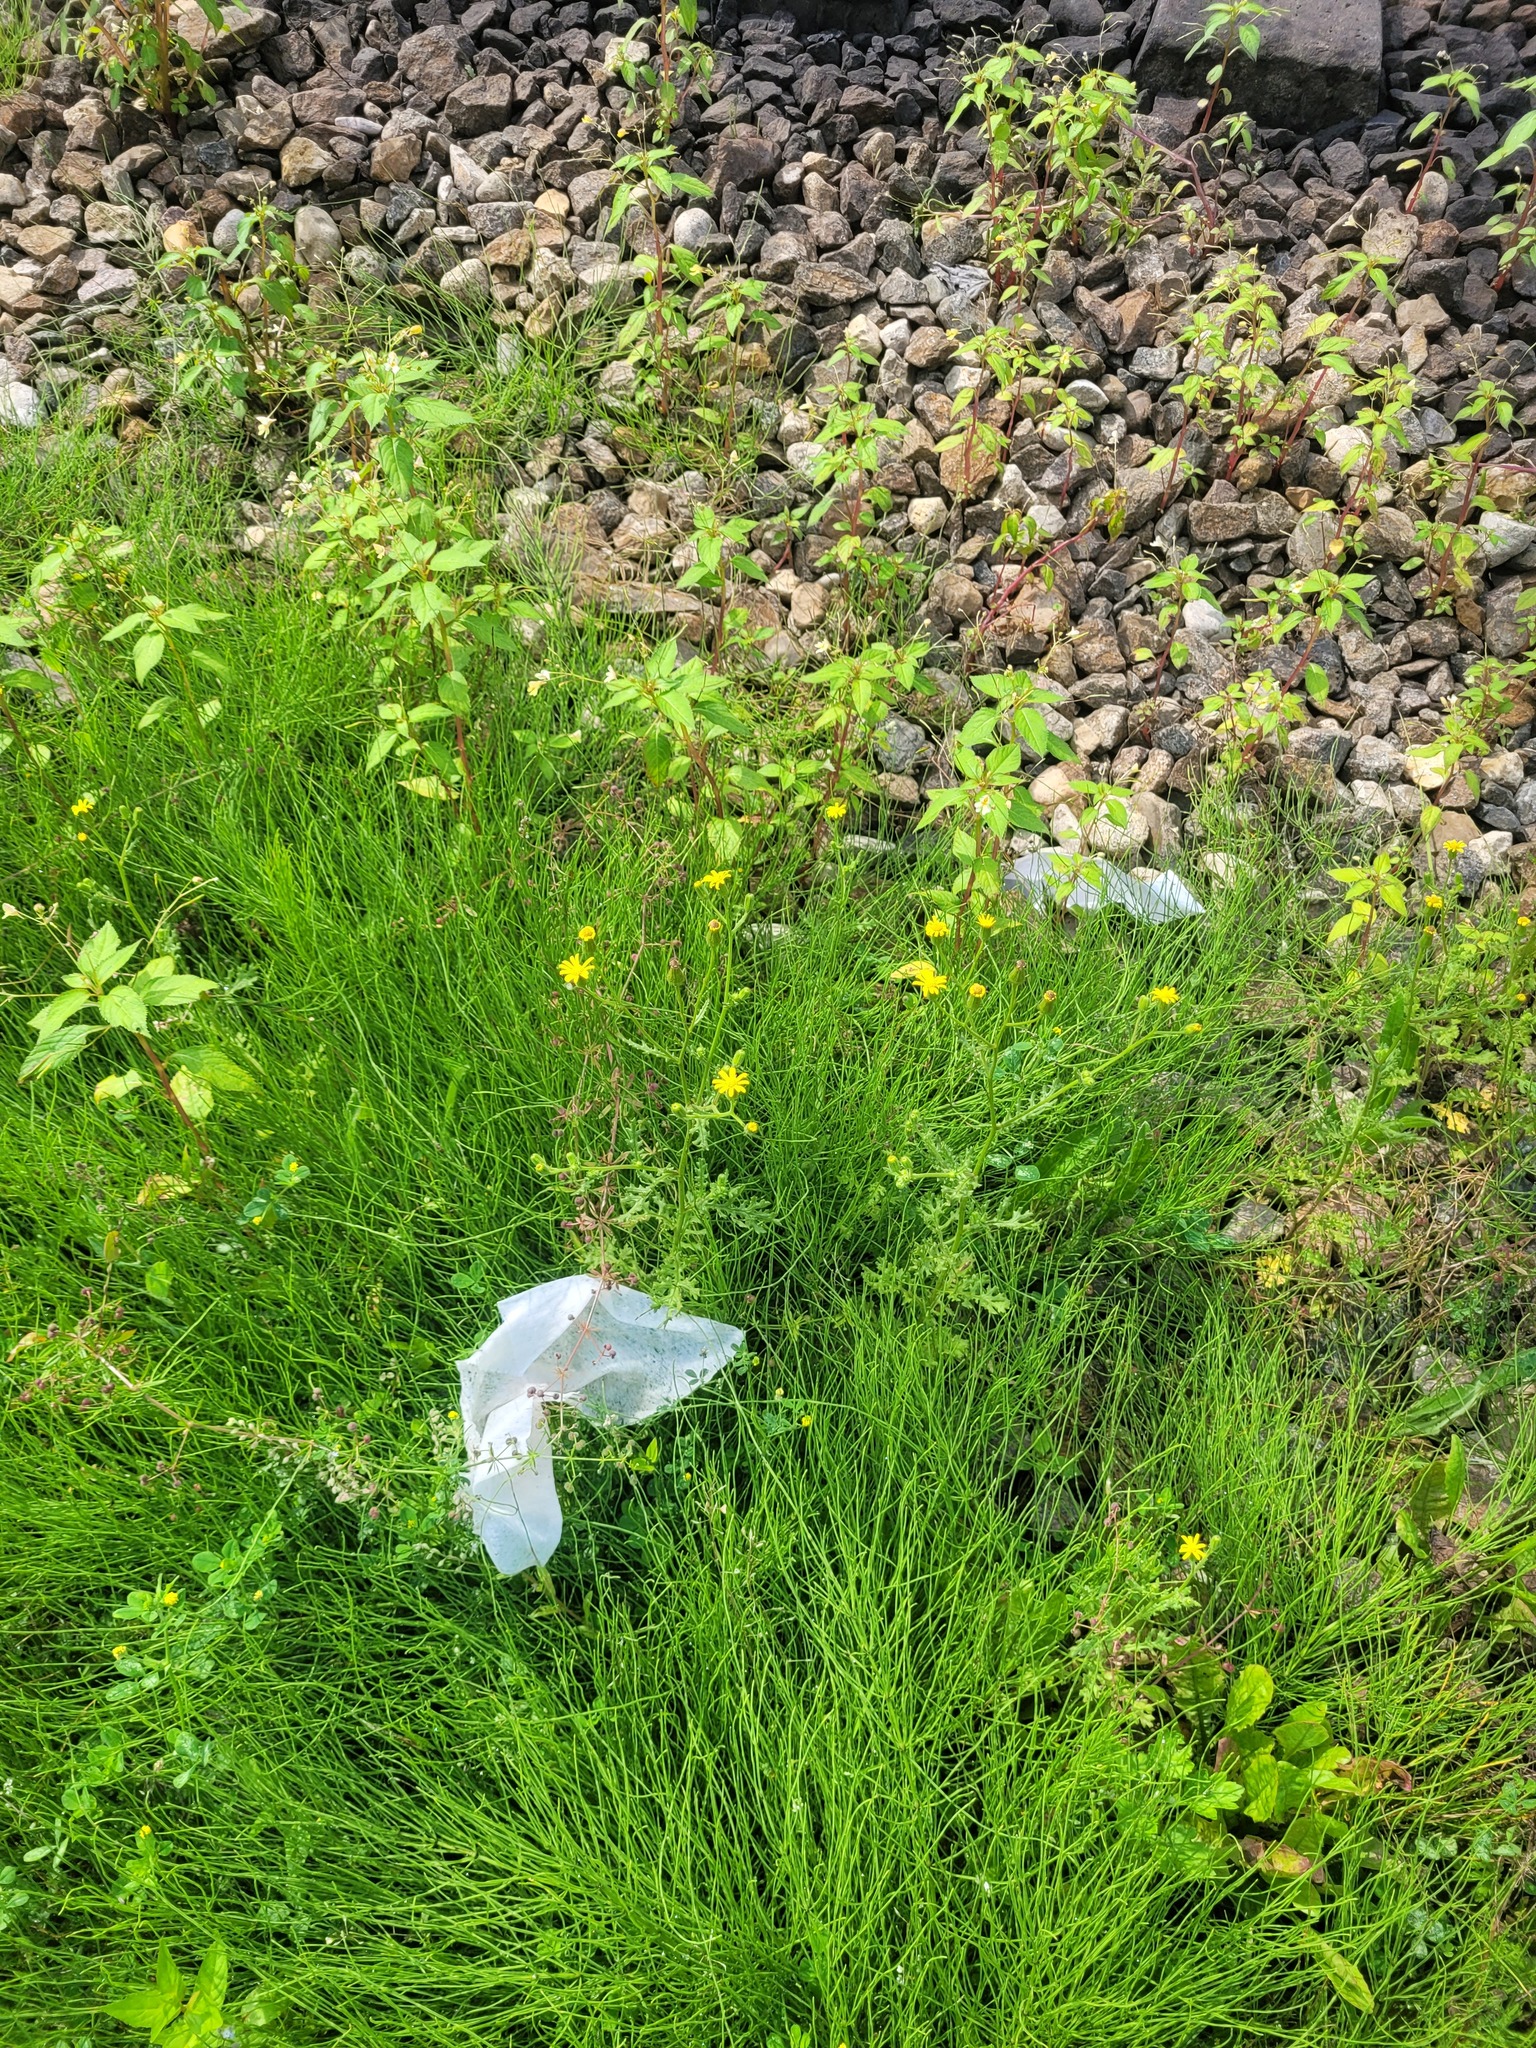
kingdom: Plantae
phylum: Tracheophyta
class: Magnoliopsida
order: Asterales
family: Asteraceae
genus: Senecio
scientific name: Senecio viscosus
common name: Sticky groundsel
